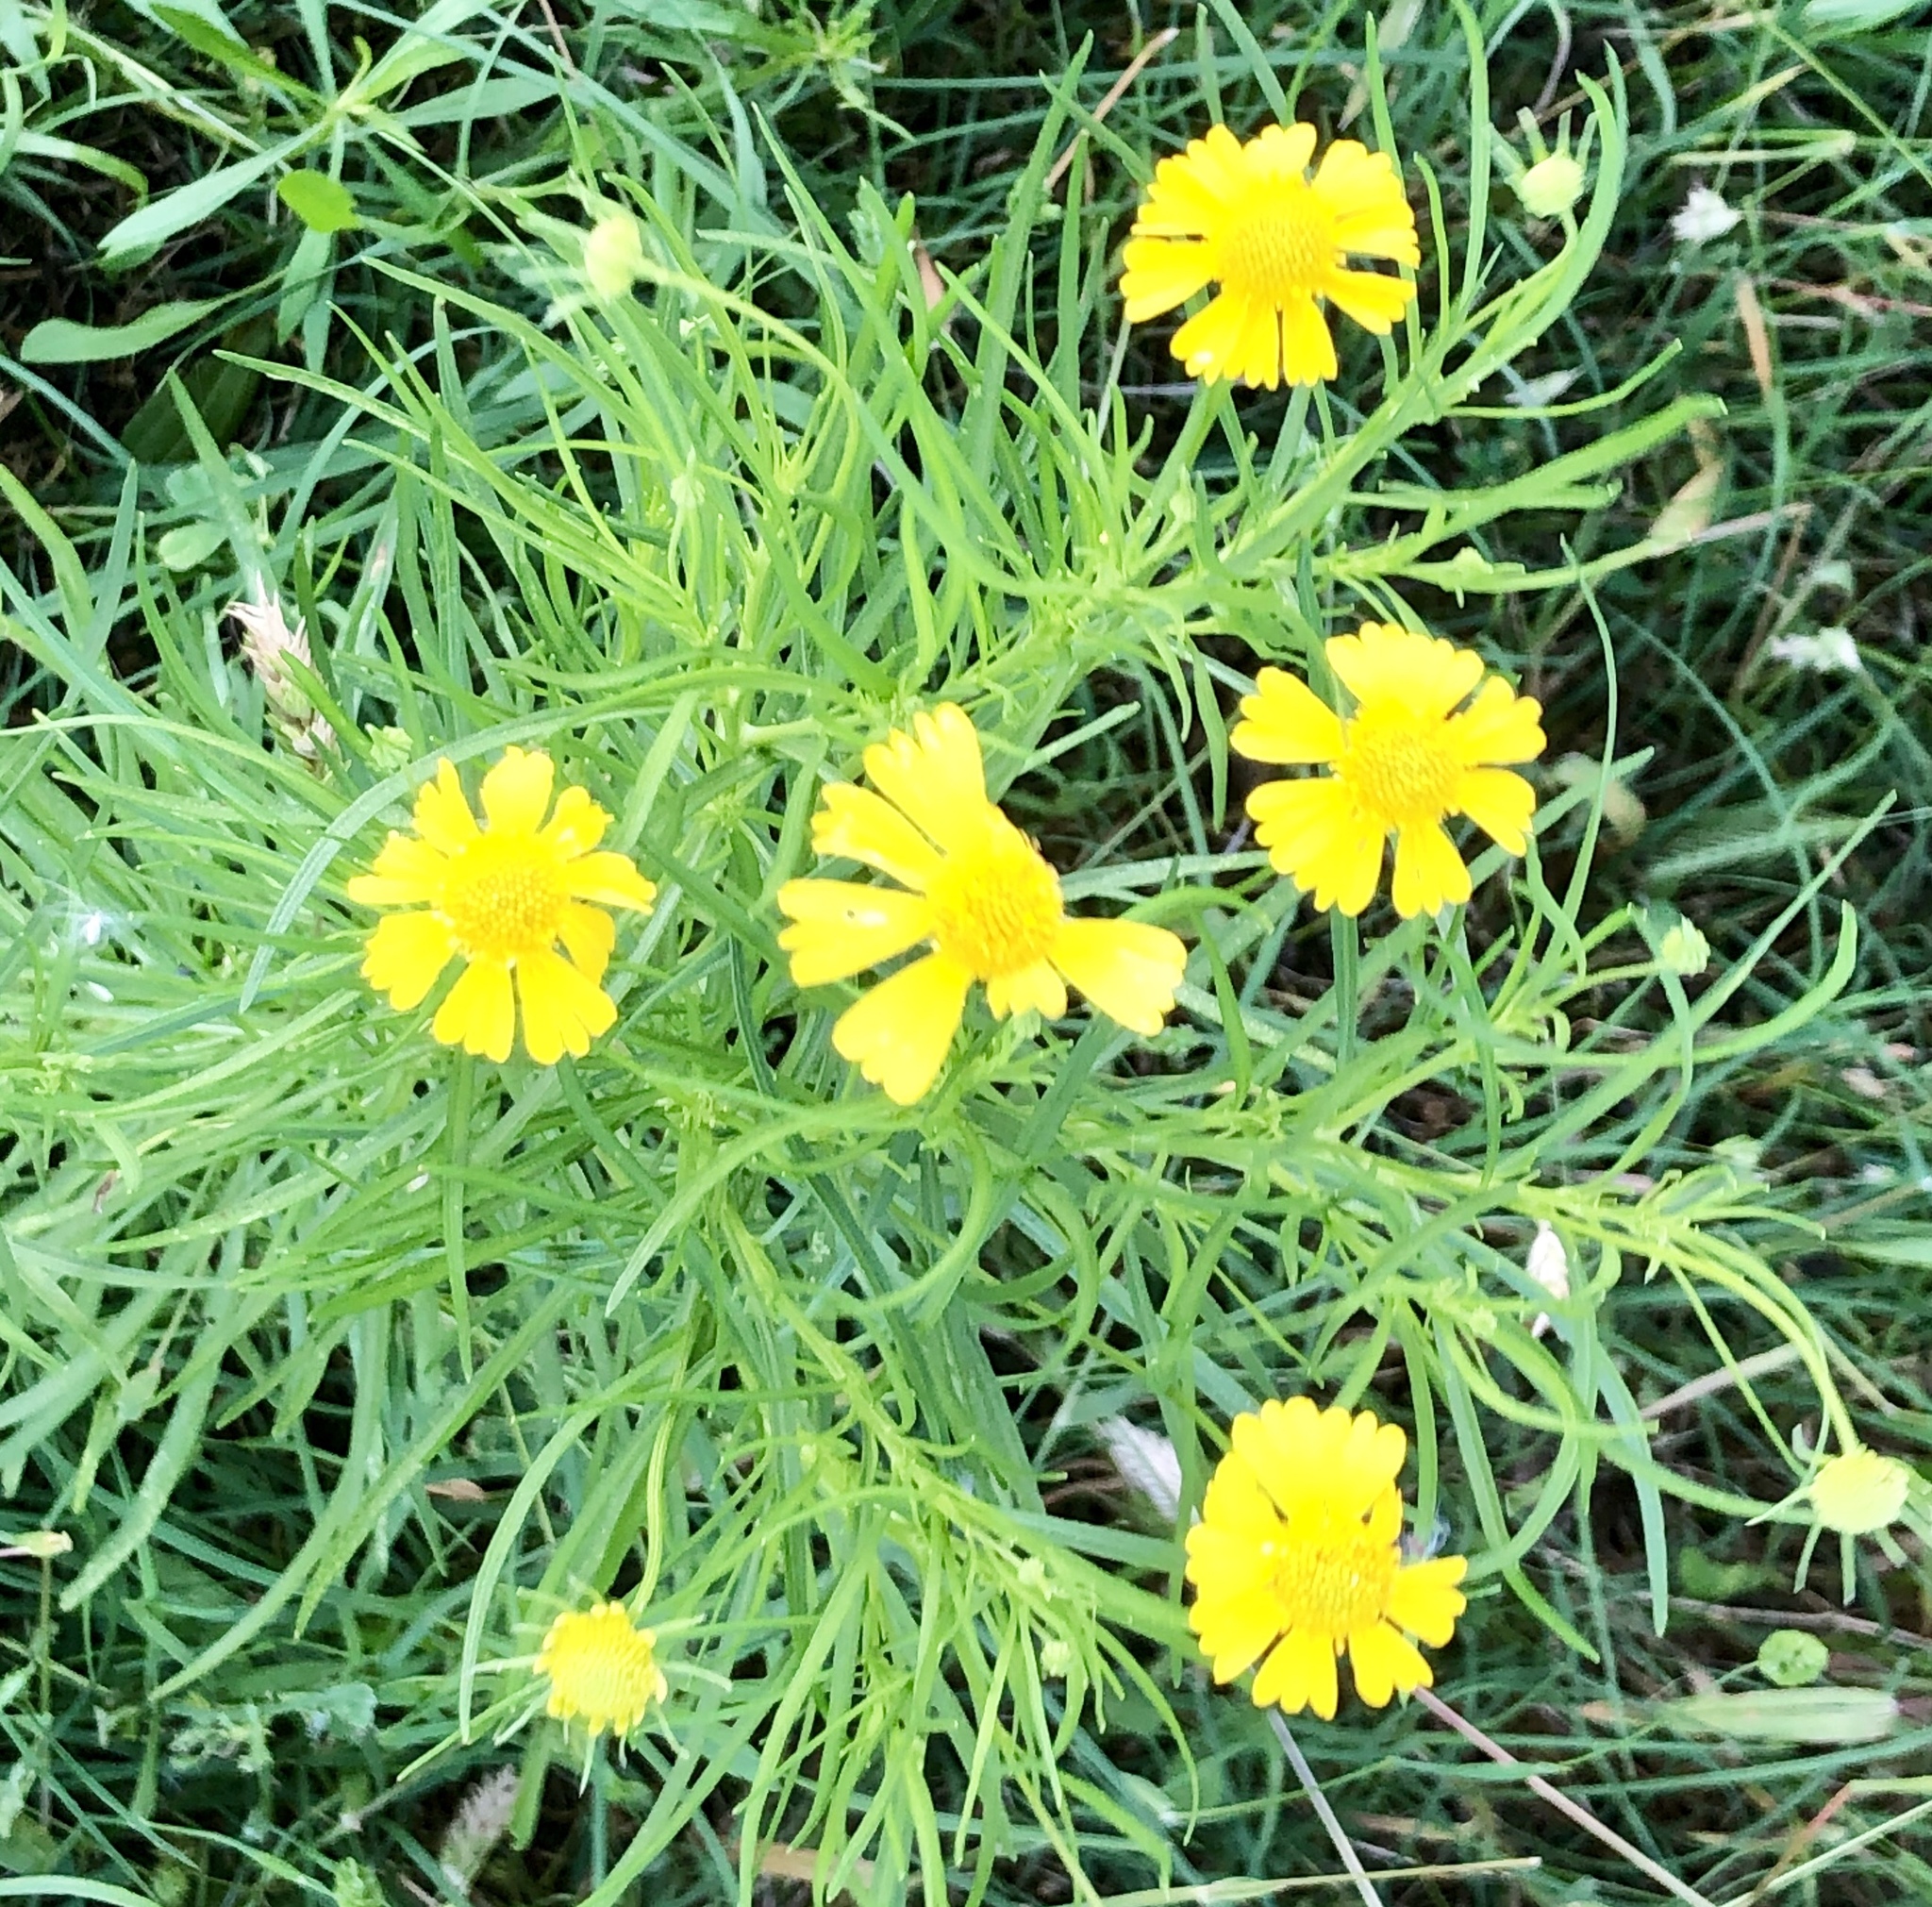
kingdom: Plantae
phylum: Tracheophyta
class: Magnoliopsida
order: Asterales
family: Asteraceae
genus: Helenium
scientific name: Helenium amarum
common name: Bitter sneezeweed
